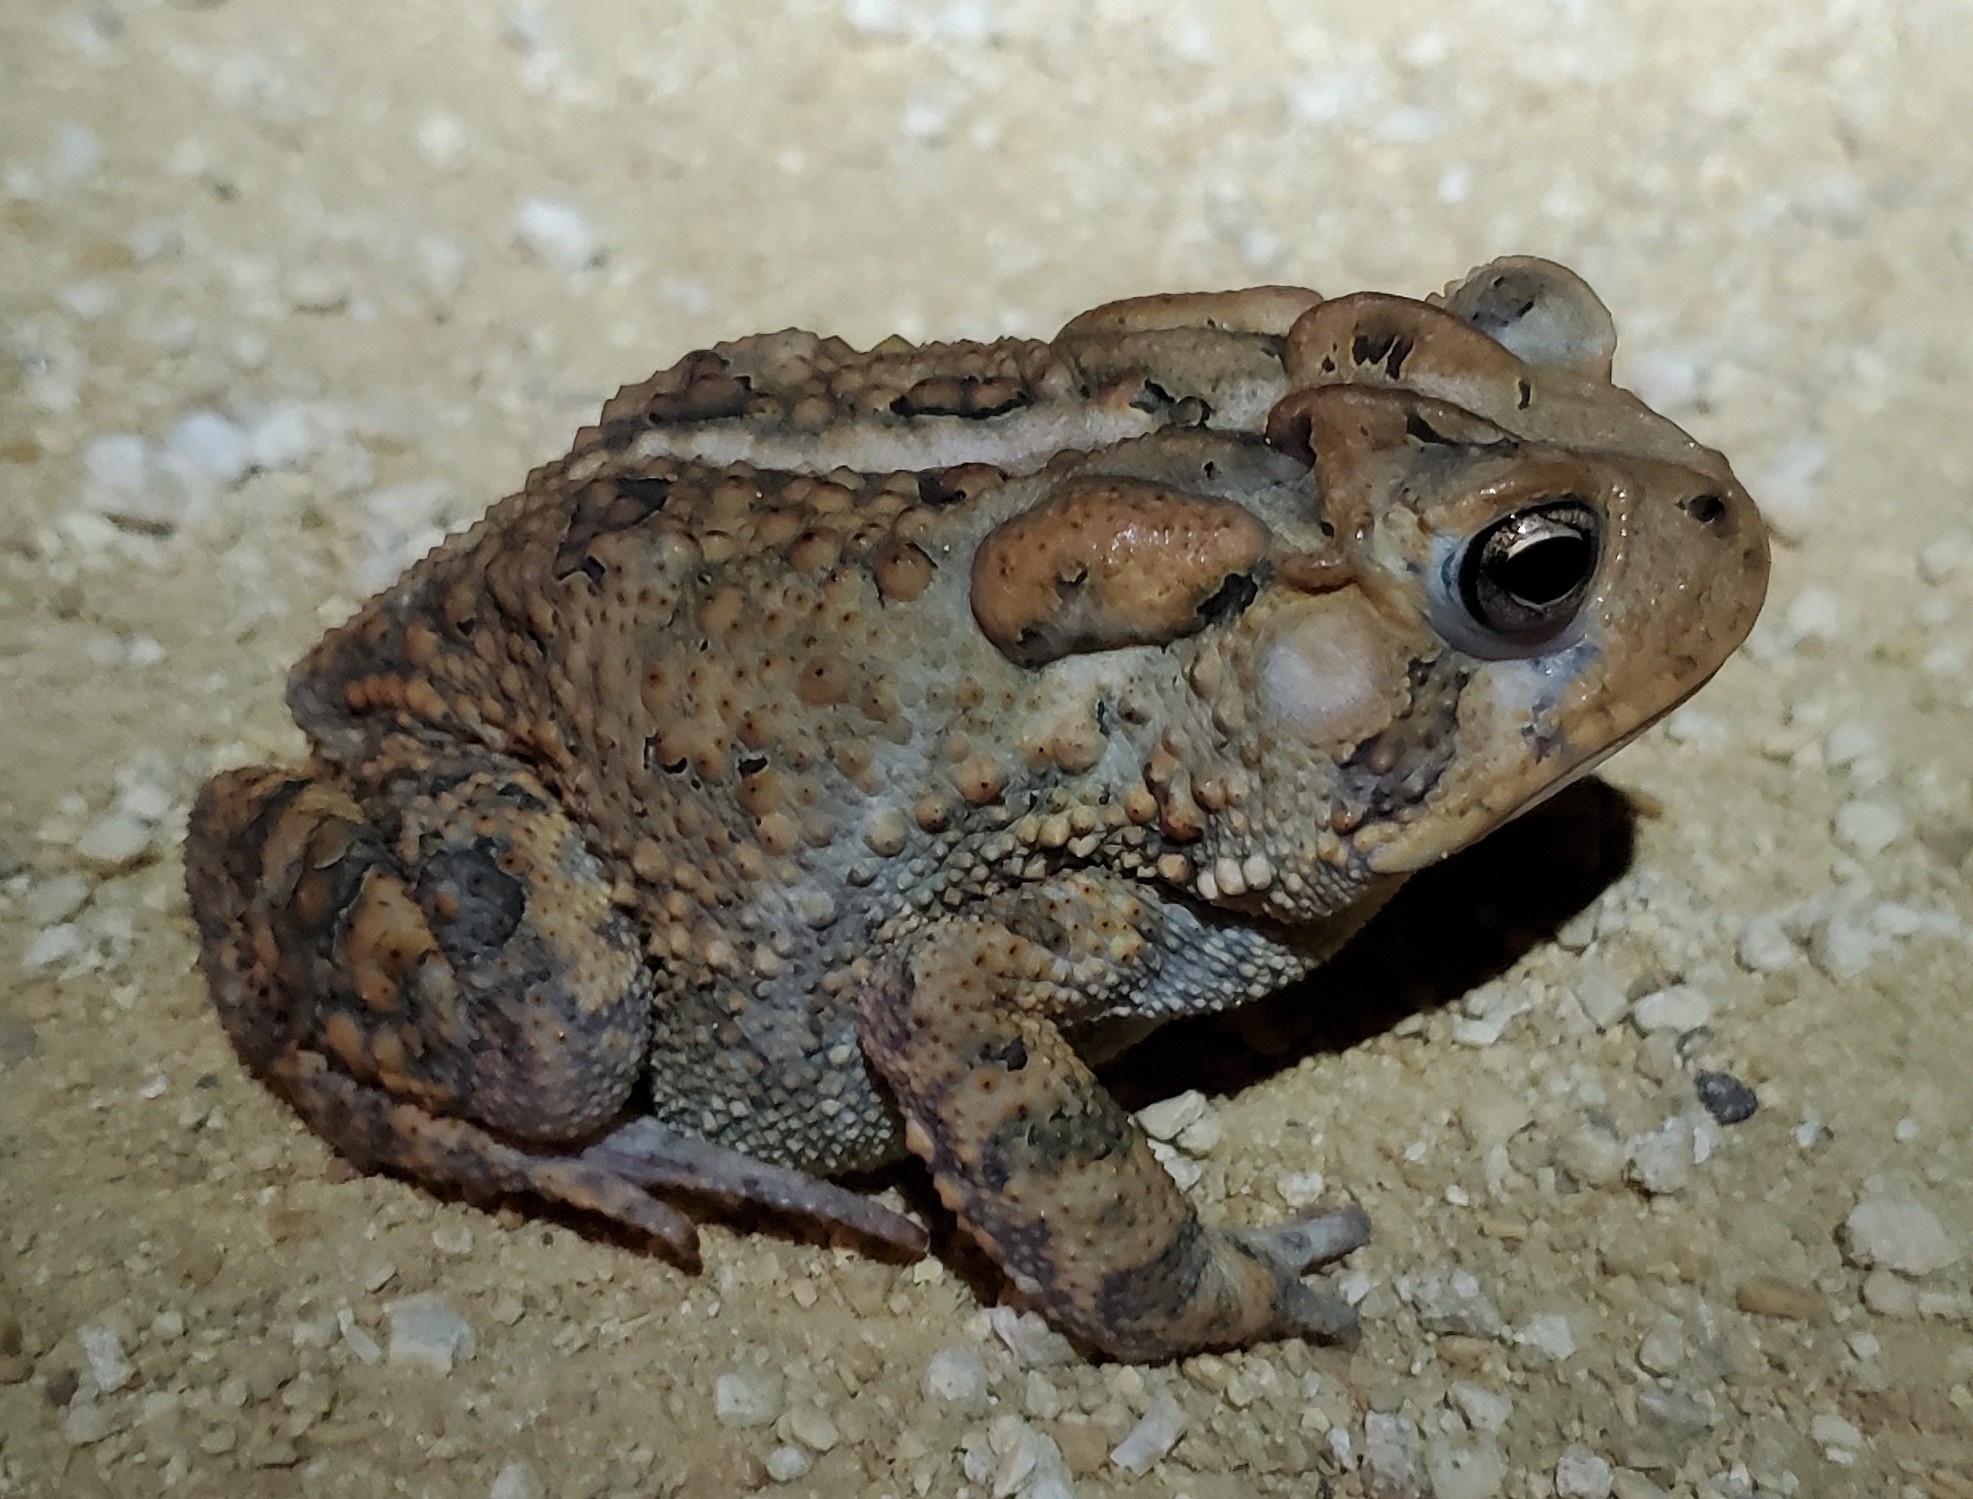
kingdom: Animalia
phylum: Chordata
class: Amphibia
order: Anura
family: Bufonidae
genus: Anaxyrus
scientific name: Anaxyrus terrestris
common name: Southern toad
